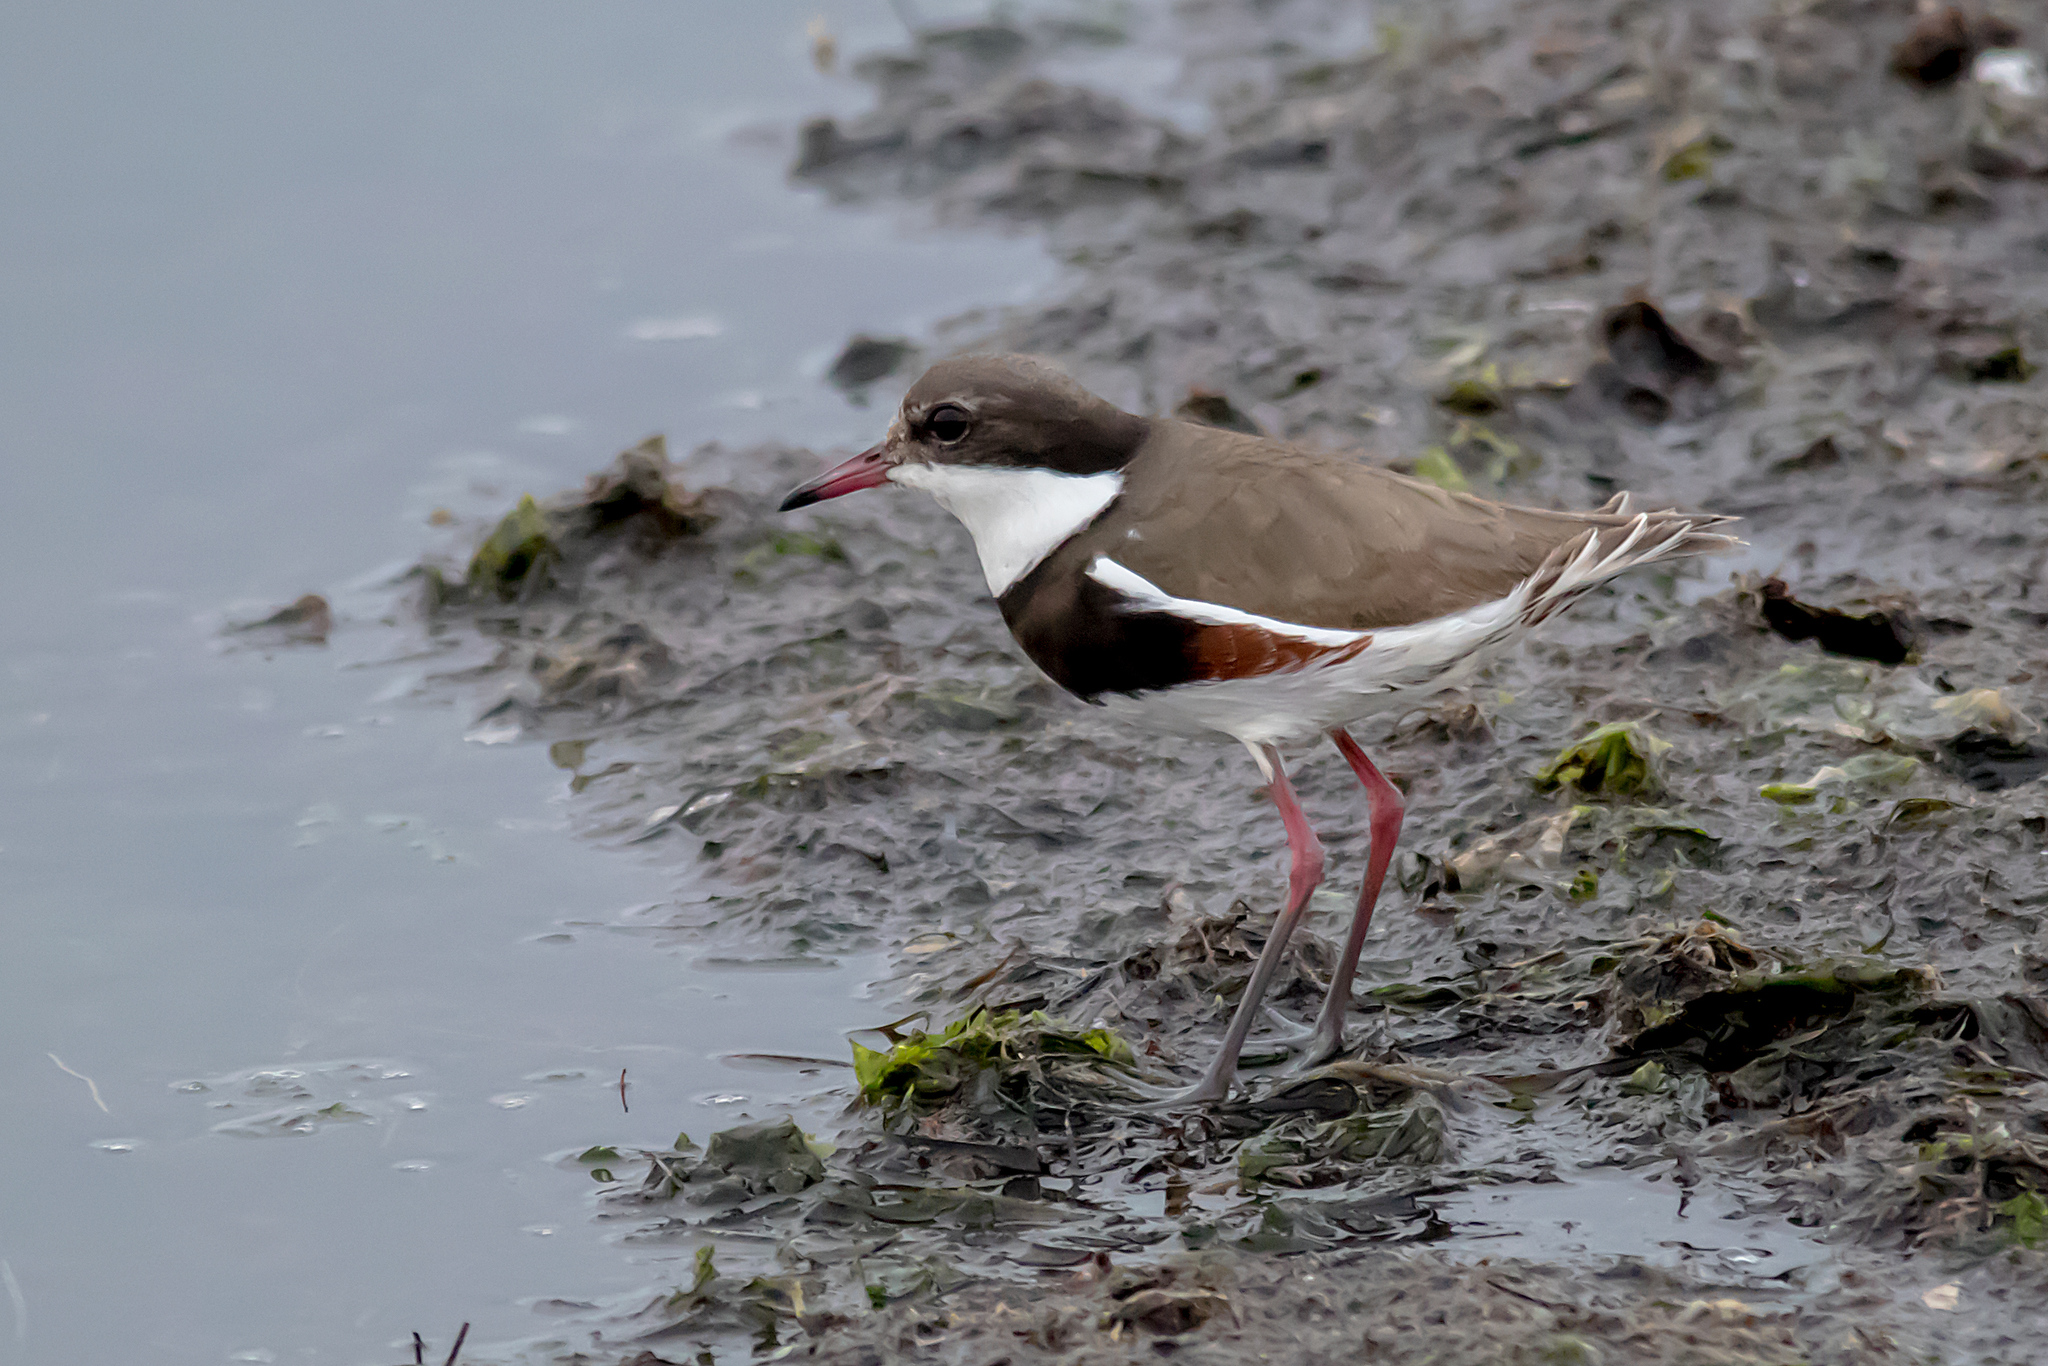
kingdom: Animalia
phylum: Chordata
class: Aves
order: Charadriiformes
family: Charadriidae
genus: Erythrogonys
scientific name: Erythrogonys cinctus
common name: Red-kneed dotterel
